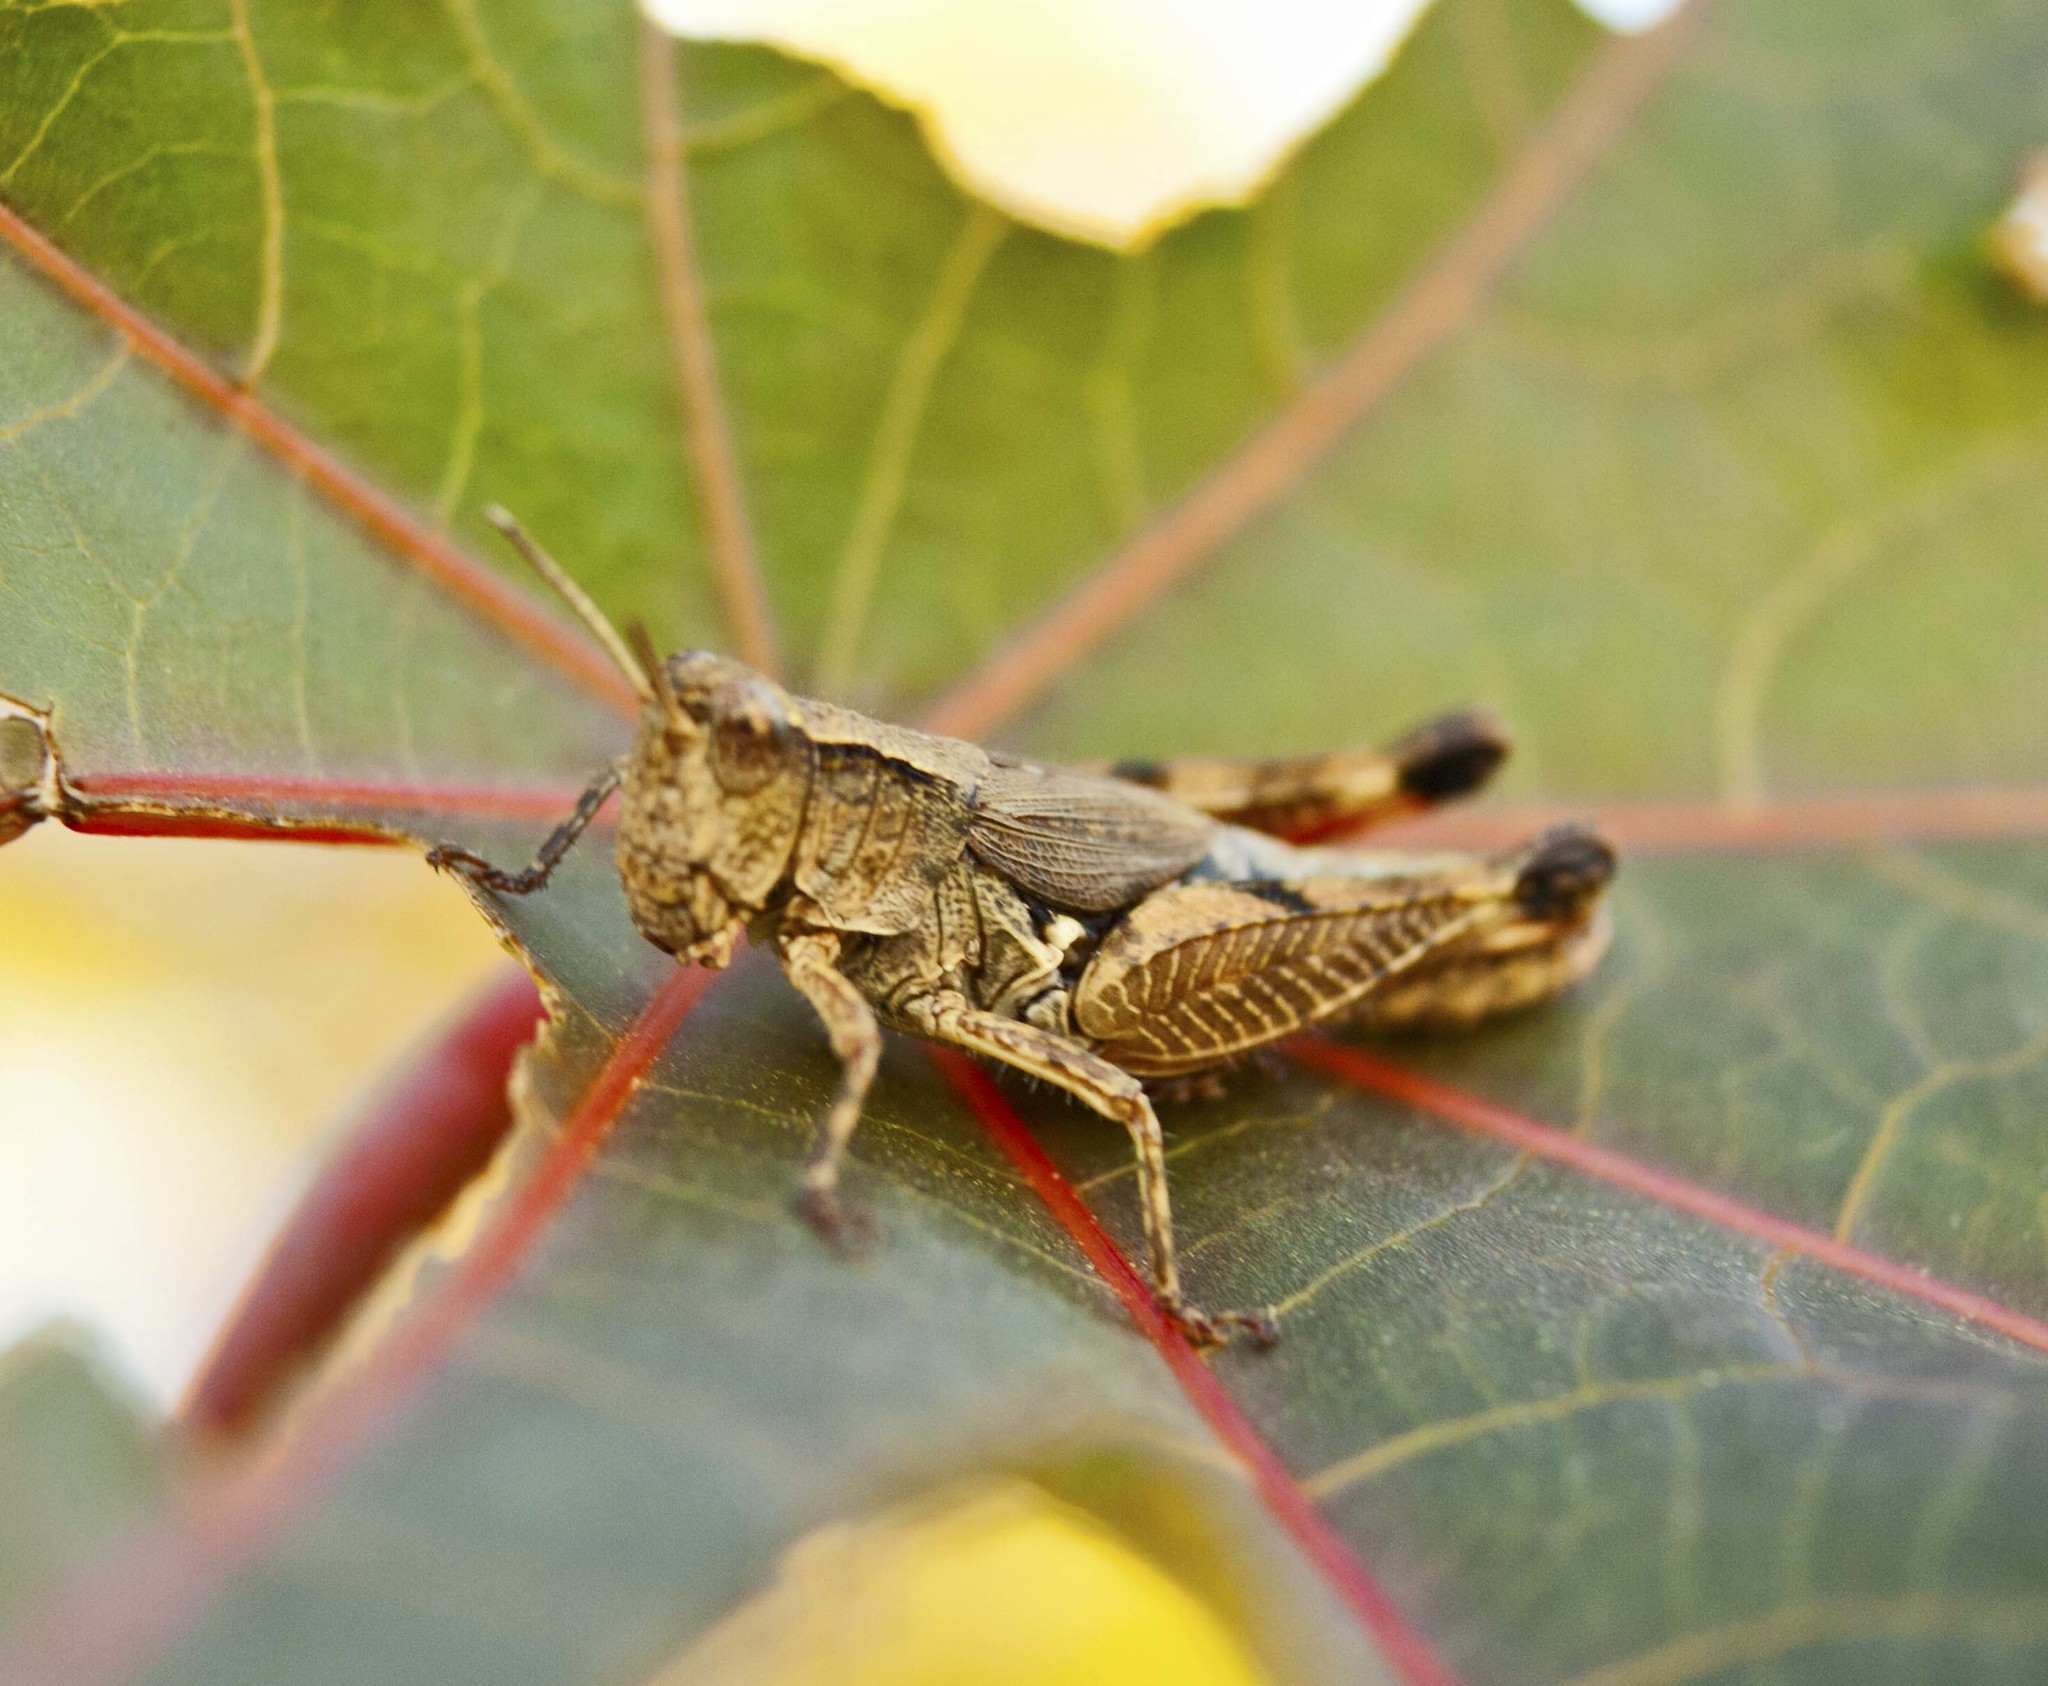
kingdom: Animalia
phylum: Arthropoda
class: Insecta
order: Orthoptera
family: Acrididae
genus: Phaulacridium
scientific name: Phaulacridium vittatum
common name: Wingless grasshopper
